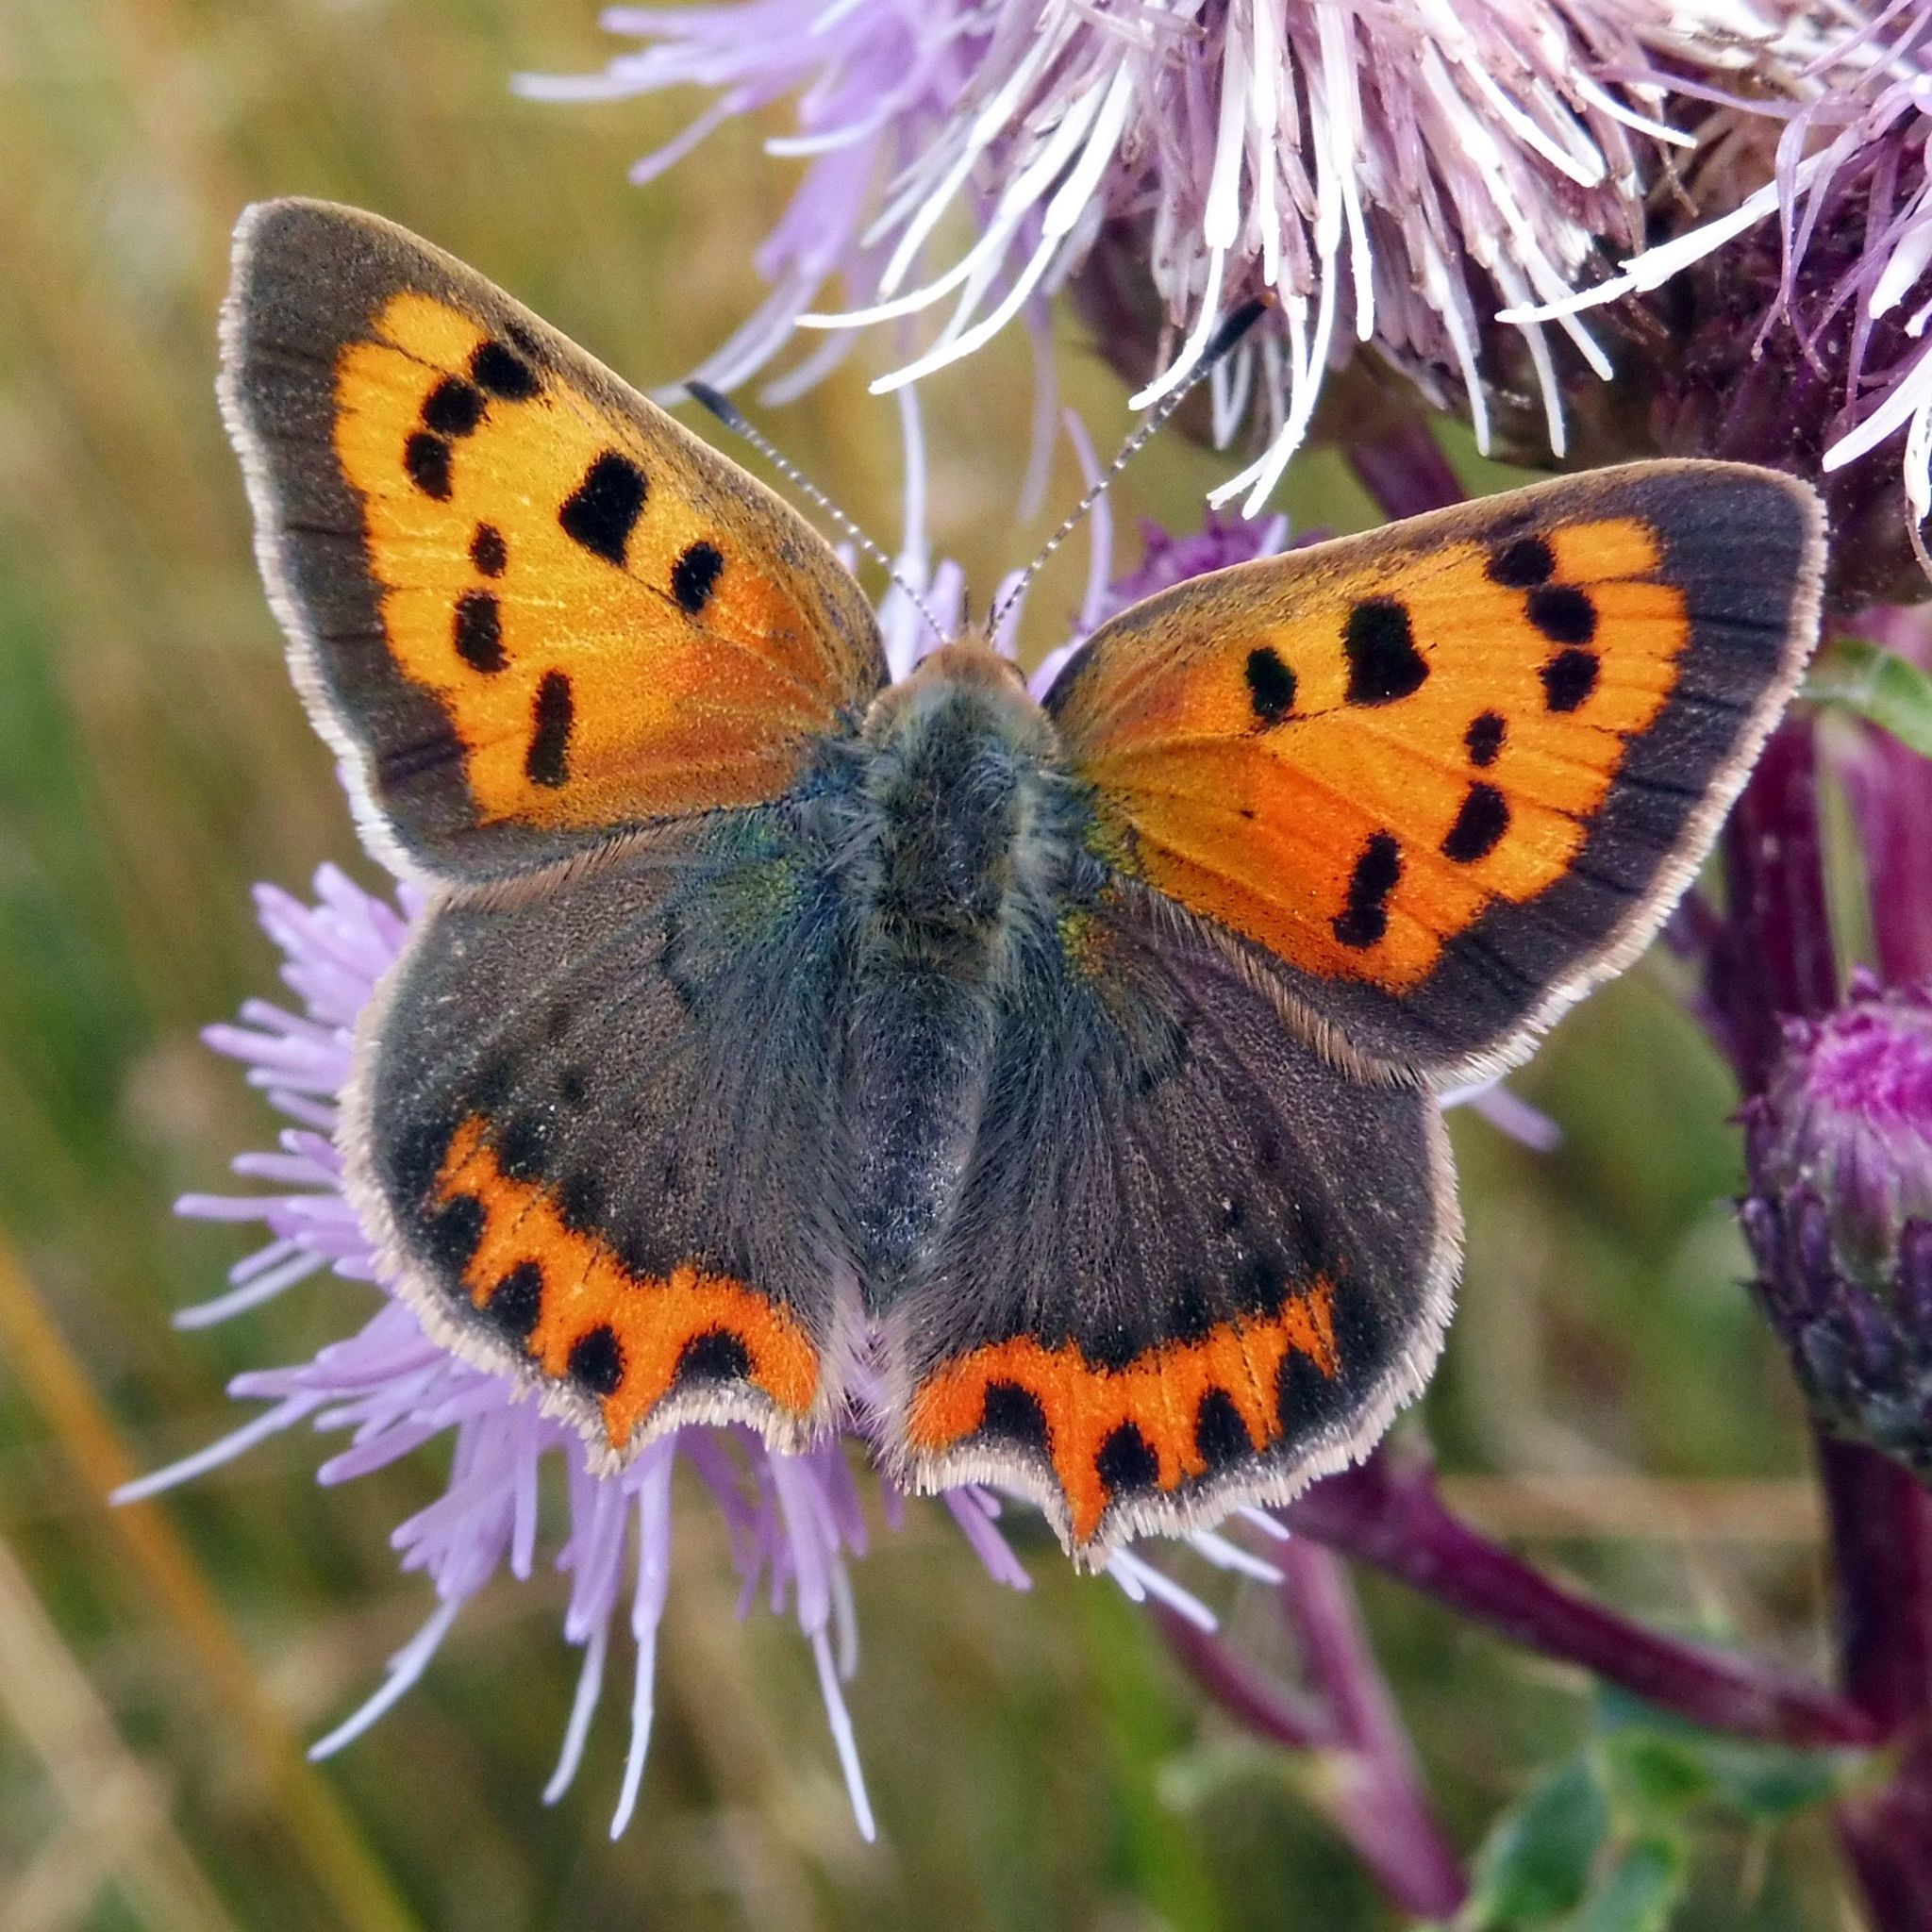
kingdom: Animalia
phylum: Arthropoda
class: Insecta
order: Lepidoptera
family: Lycaenidae
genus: Lycaena
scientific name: Lycaena phlaeas
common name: Small copper
